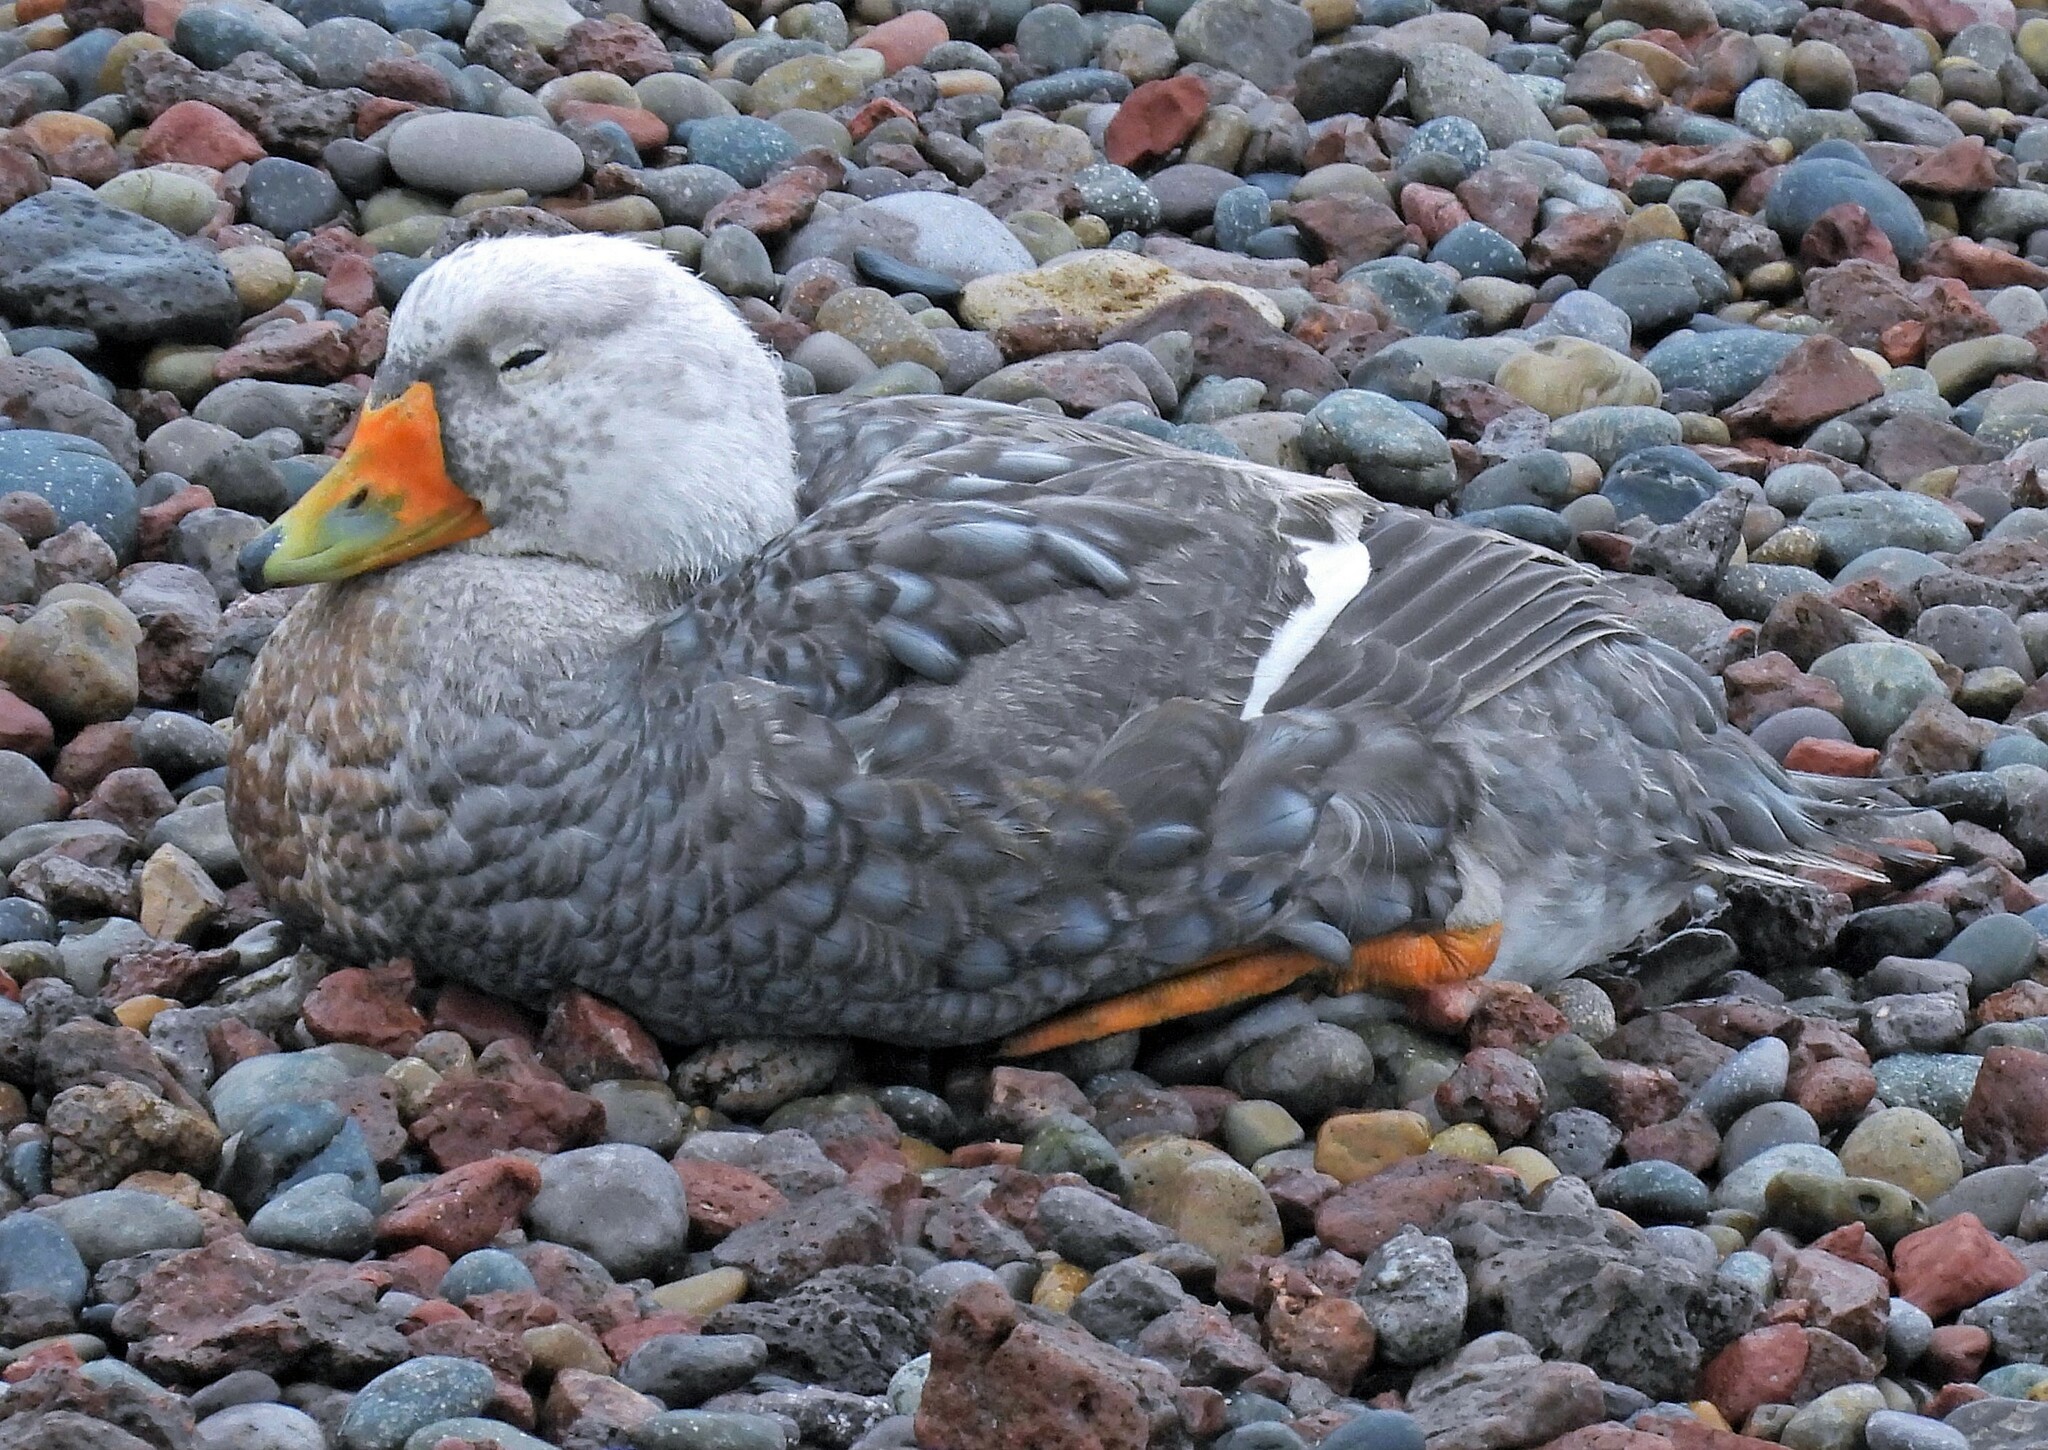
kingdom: Animalia
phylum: Chordata
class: Aves
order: Anseriformes
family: Anatidae
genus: Tachyeres
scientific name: Tachyeres leucocephalus
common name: Chubut steamer duck
